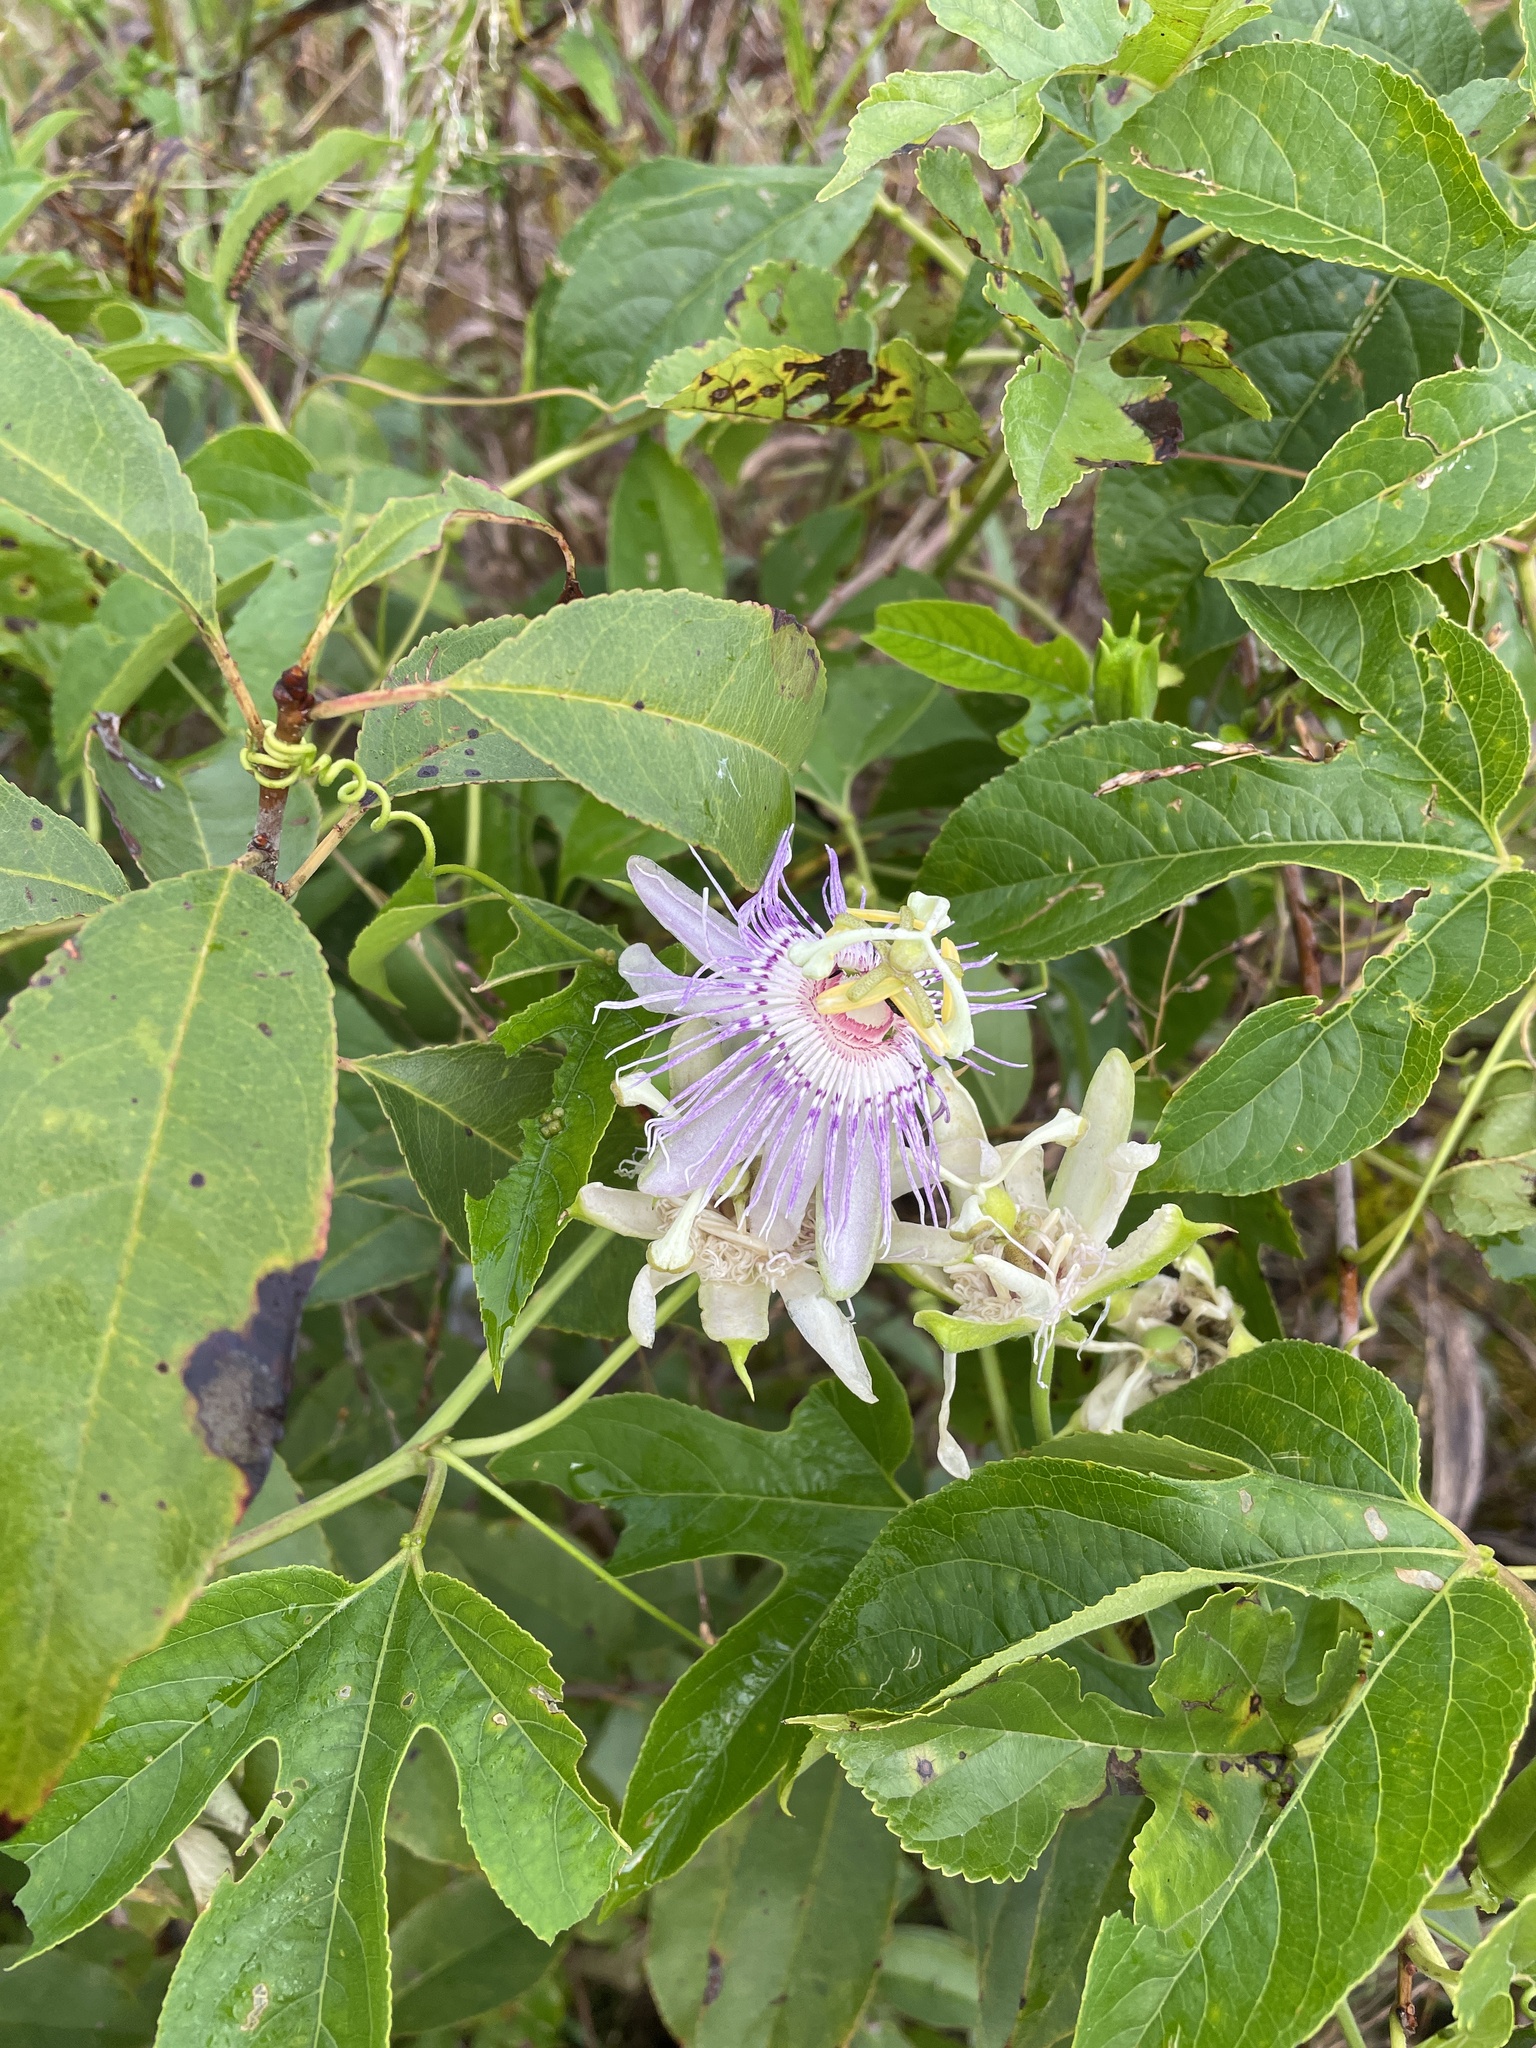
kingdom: Plantae
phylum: Tracheophyta
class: Magnoliopsida
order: Malpighiales
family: Passifloraceae
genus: Passiflora
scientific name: Passiflora incarnata
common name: Apricot-vine
